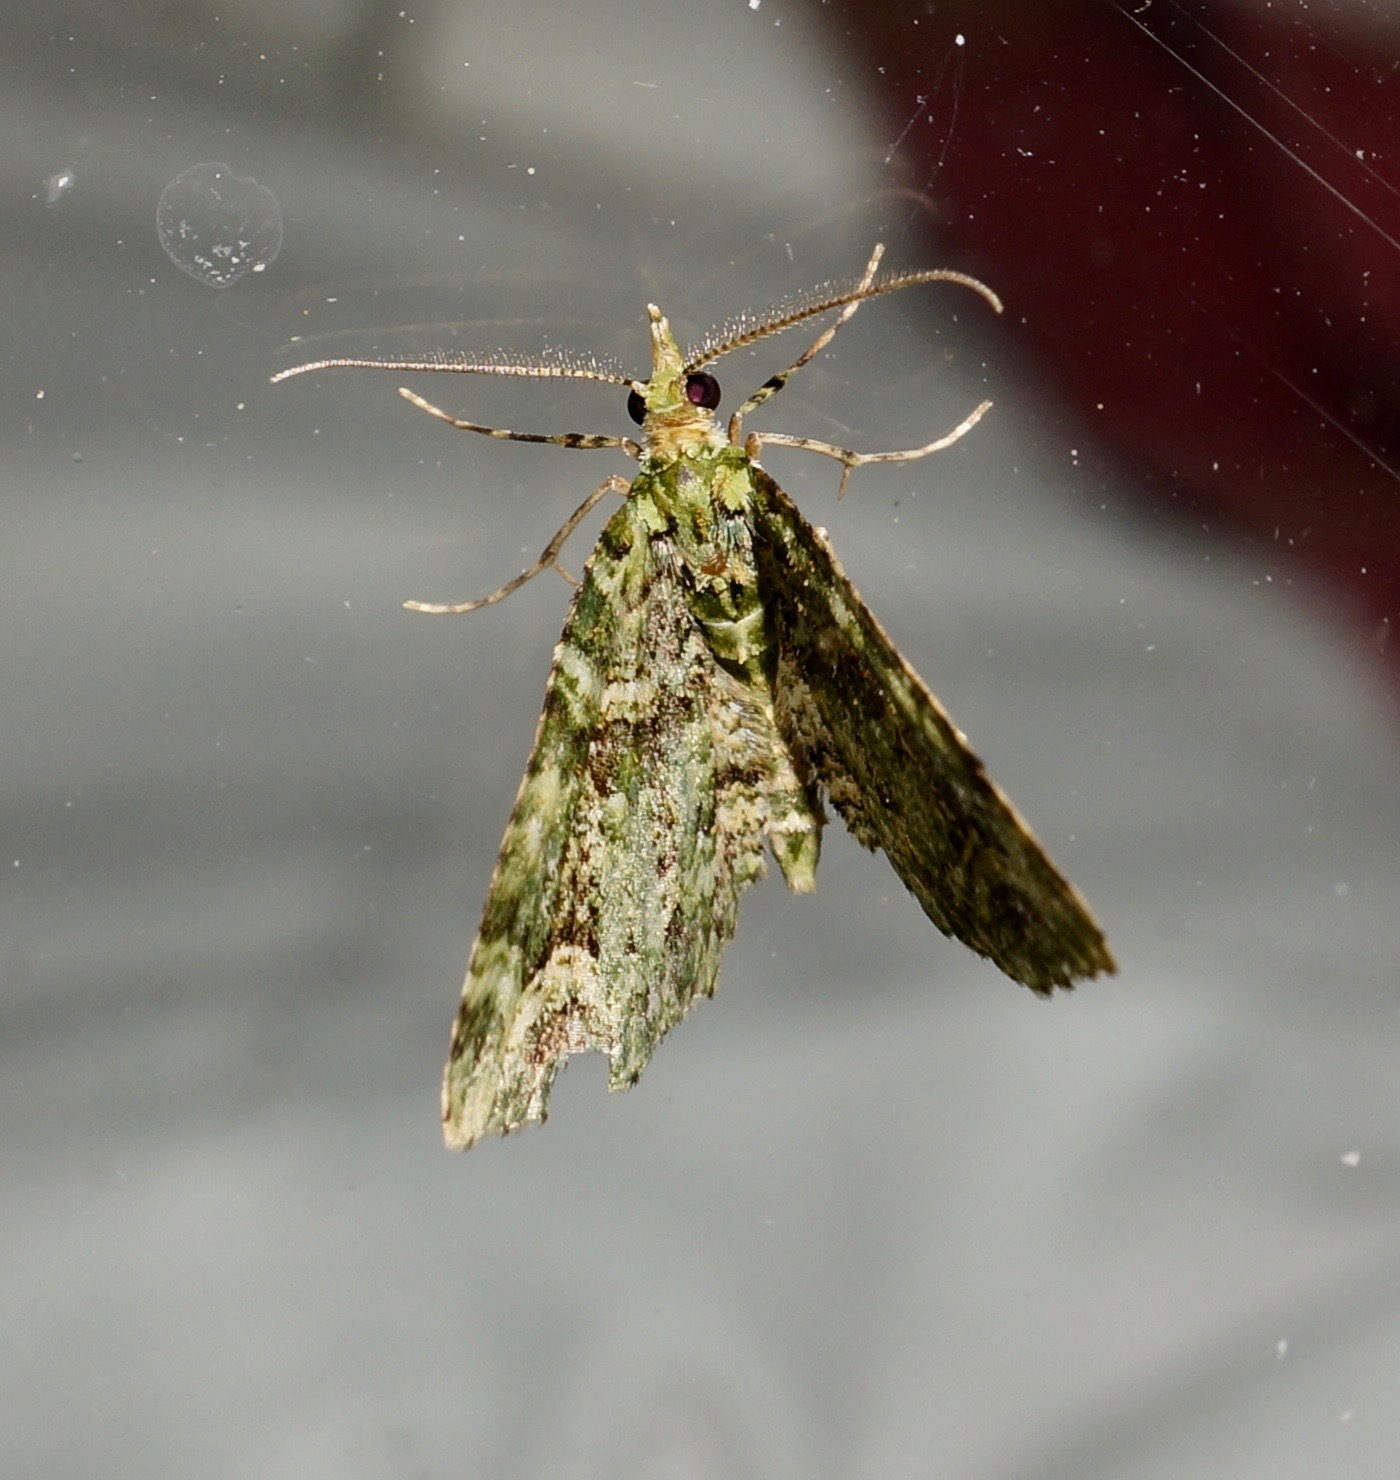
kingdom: Animalia
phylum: Arthropoda
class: Insecta
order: Lepidoptera
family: Geometridae
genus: Pasiphila
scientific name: Pasiphila muscosata
